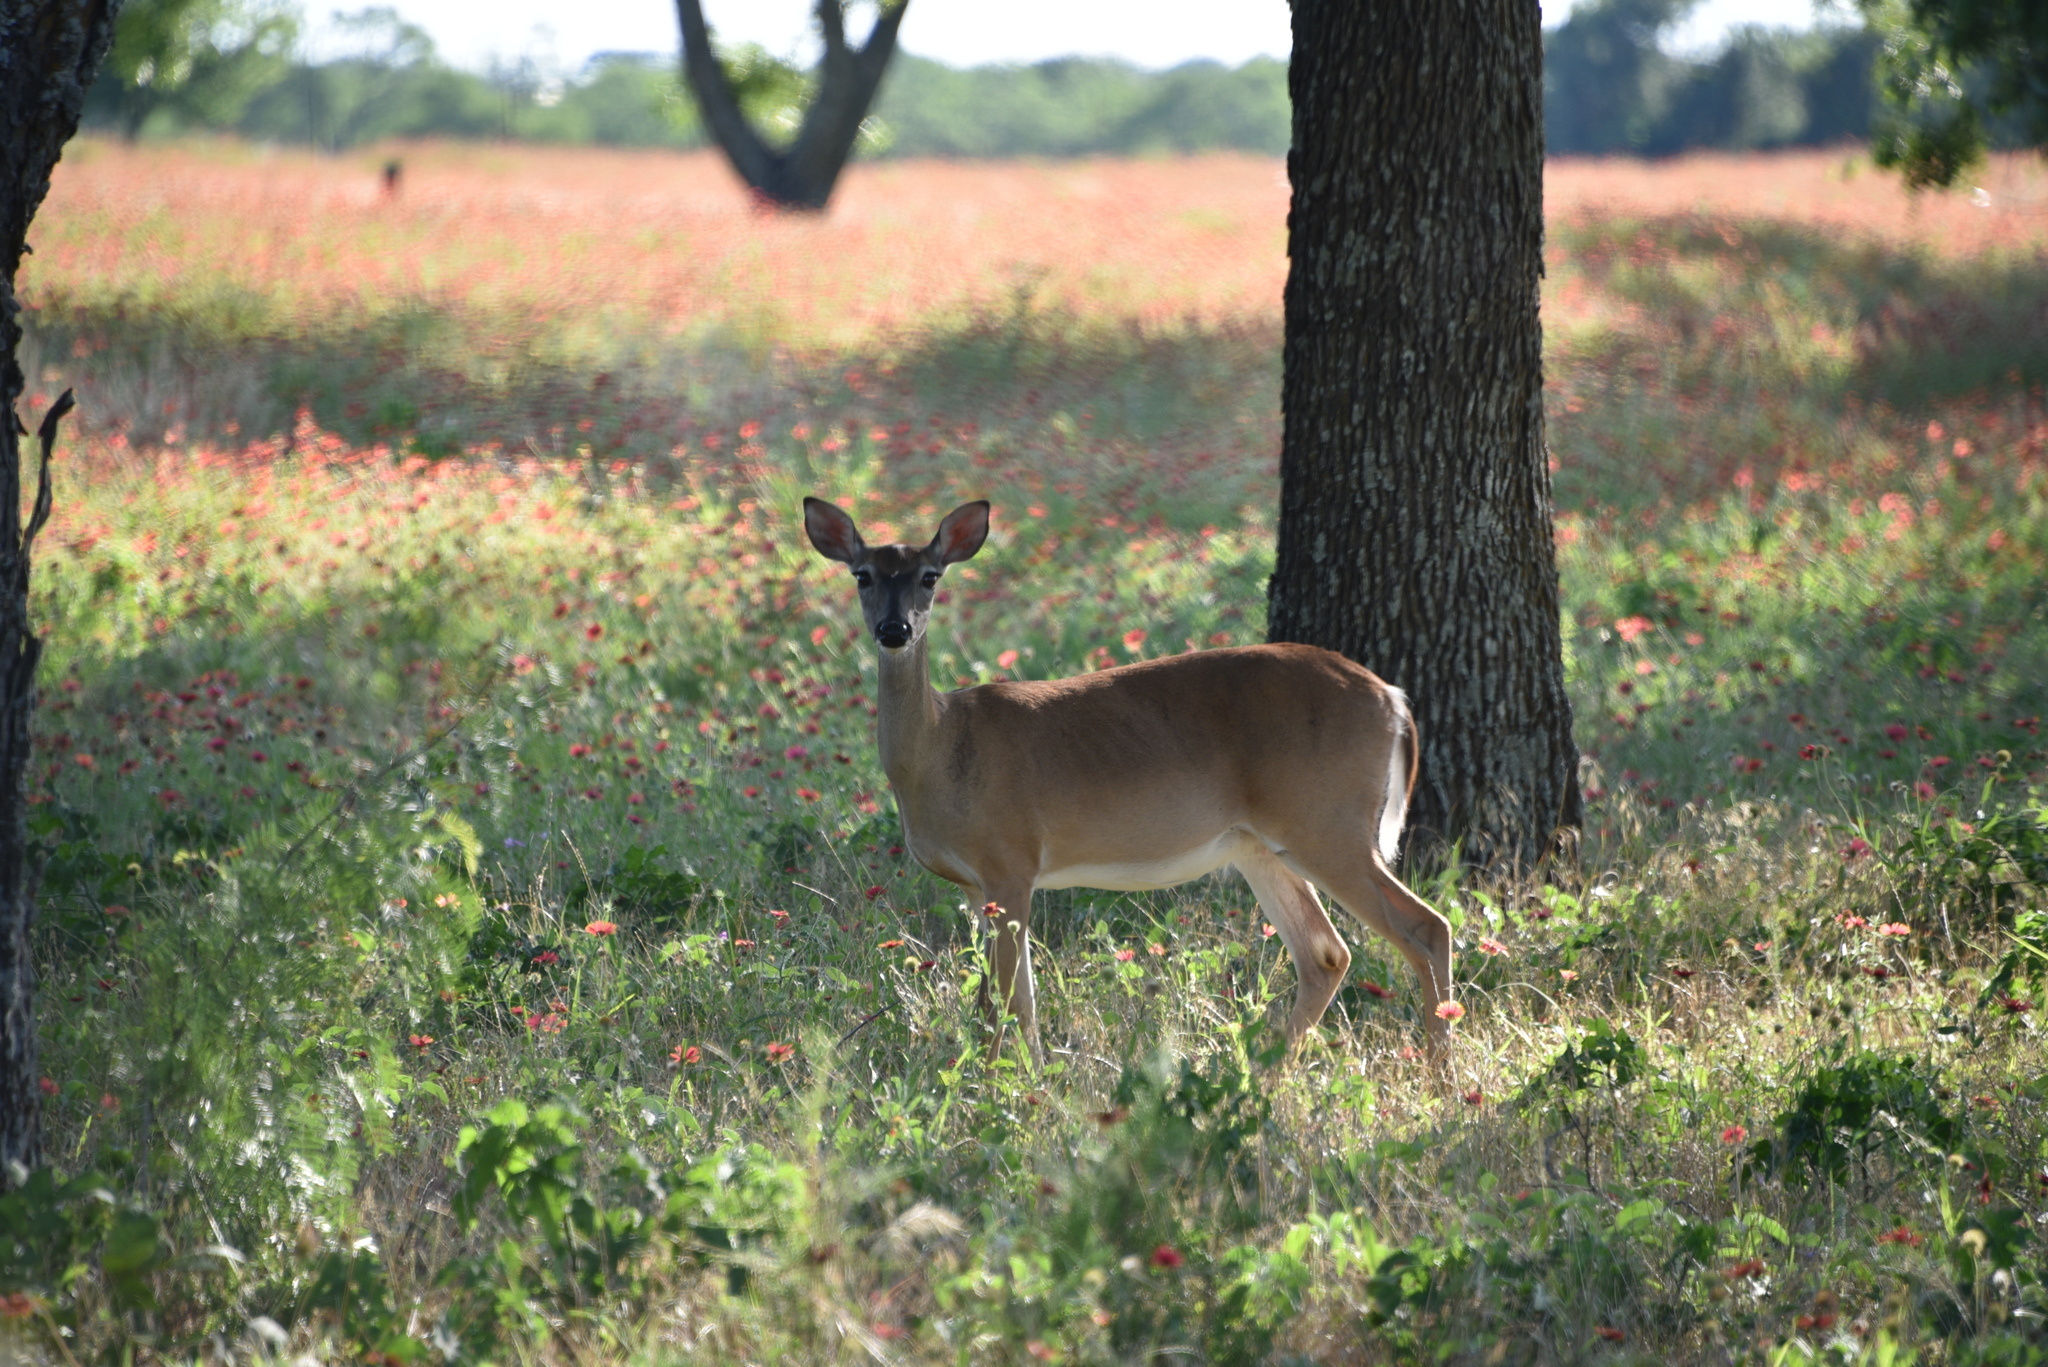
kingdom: Animalia
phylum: Chordata
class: Mammalia
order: Artiodactyla
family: Cervidae
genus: Odocoileus
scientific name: Odocoileus virginianus
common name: White-tailed deer
